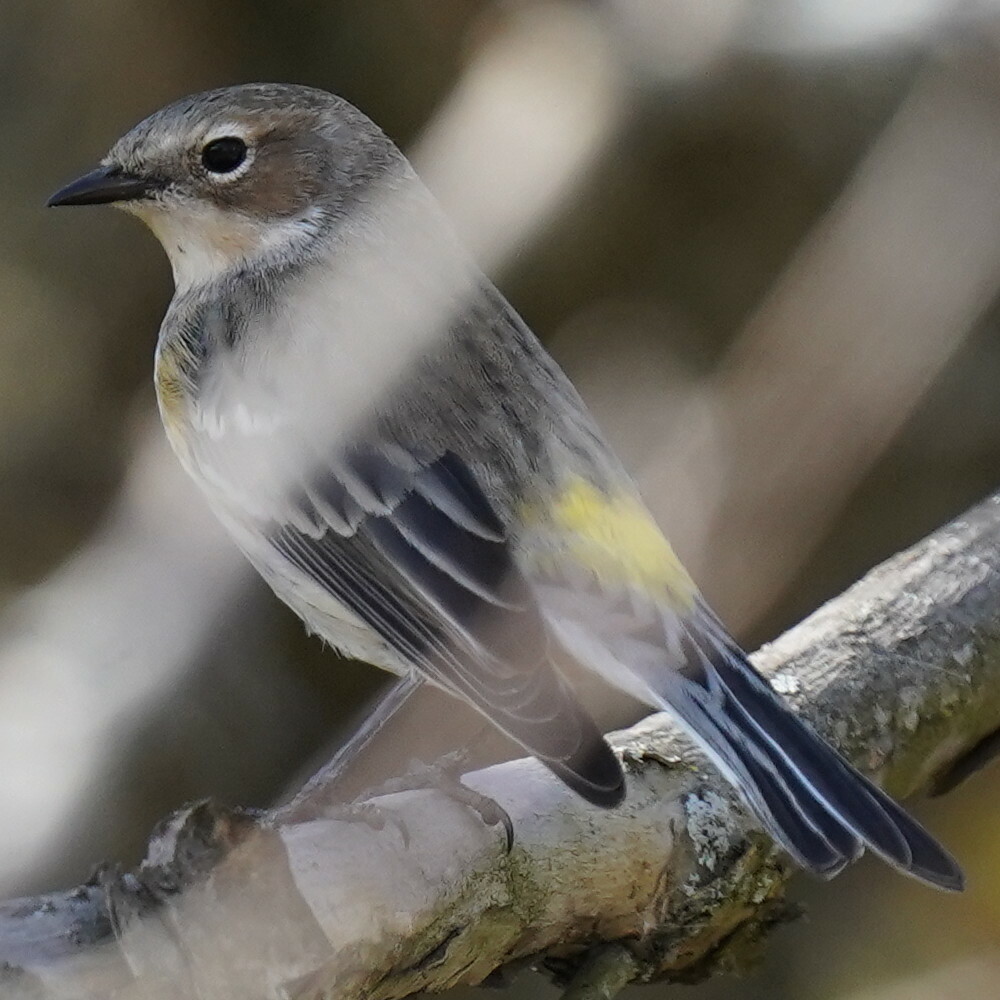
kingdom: Animalia
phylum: Chordata
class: Aves
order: Passeriformes
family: Parulidae
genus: Setophaga
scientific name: Setophaga coronata
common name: Myrtle warbler
